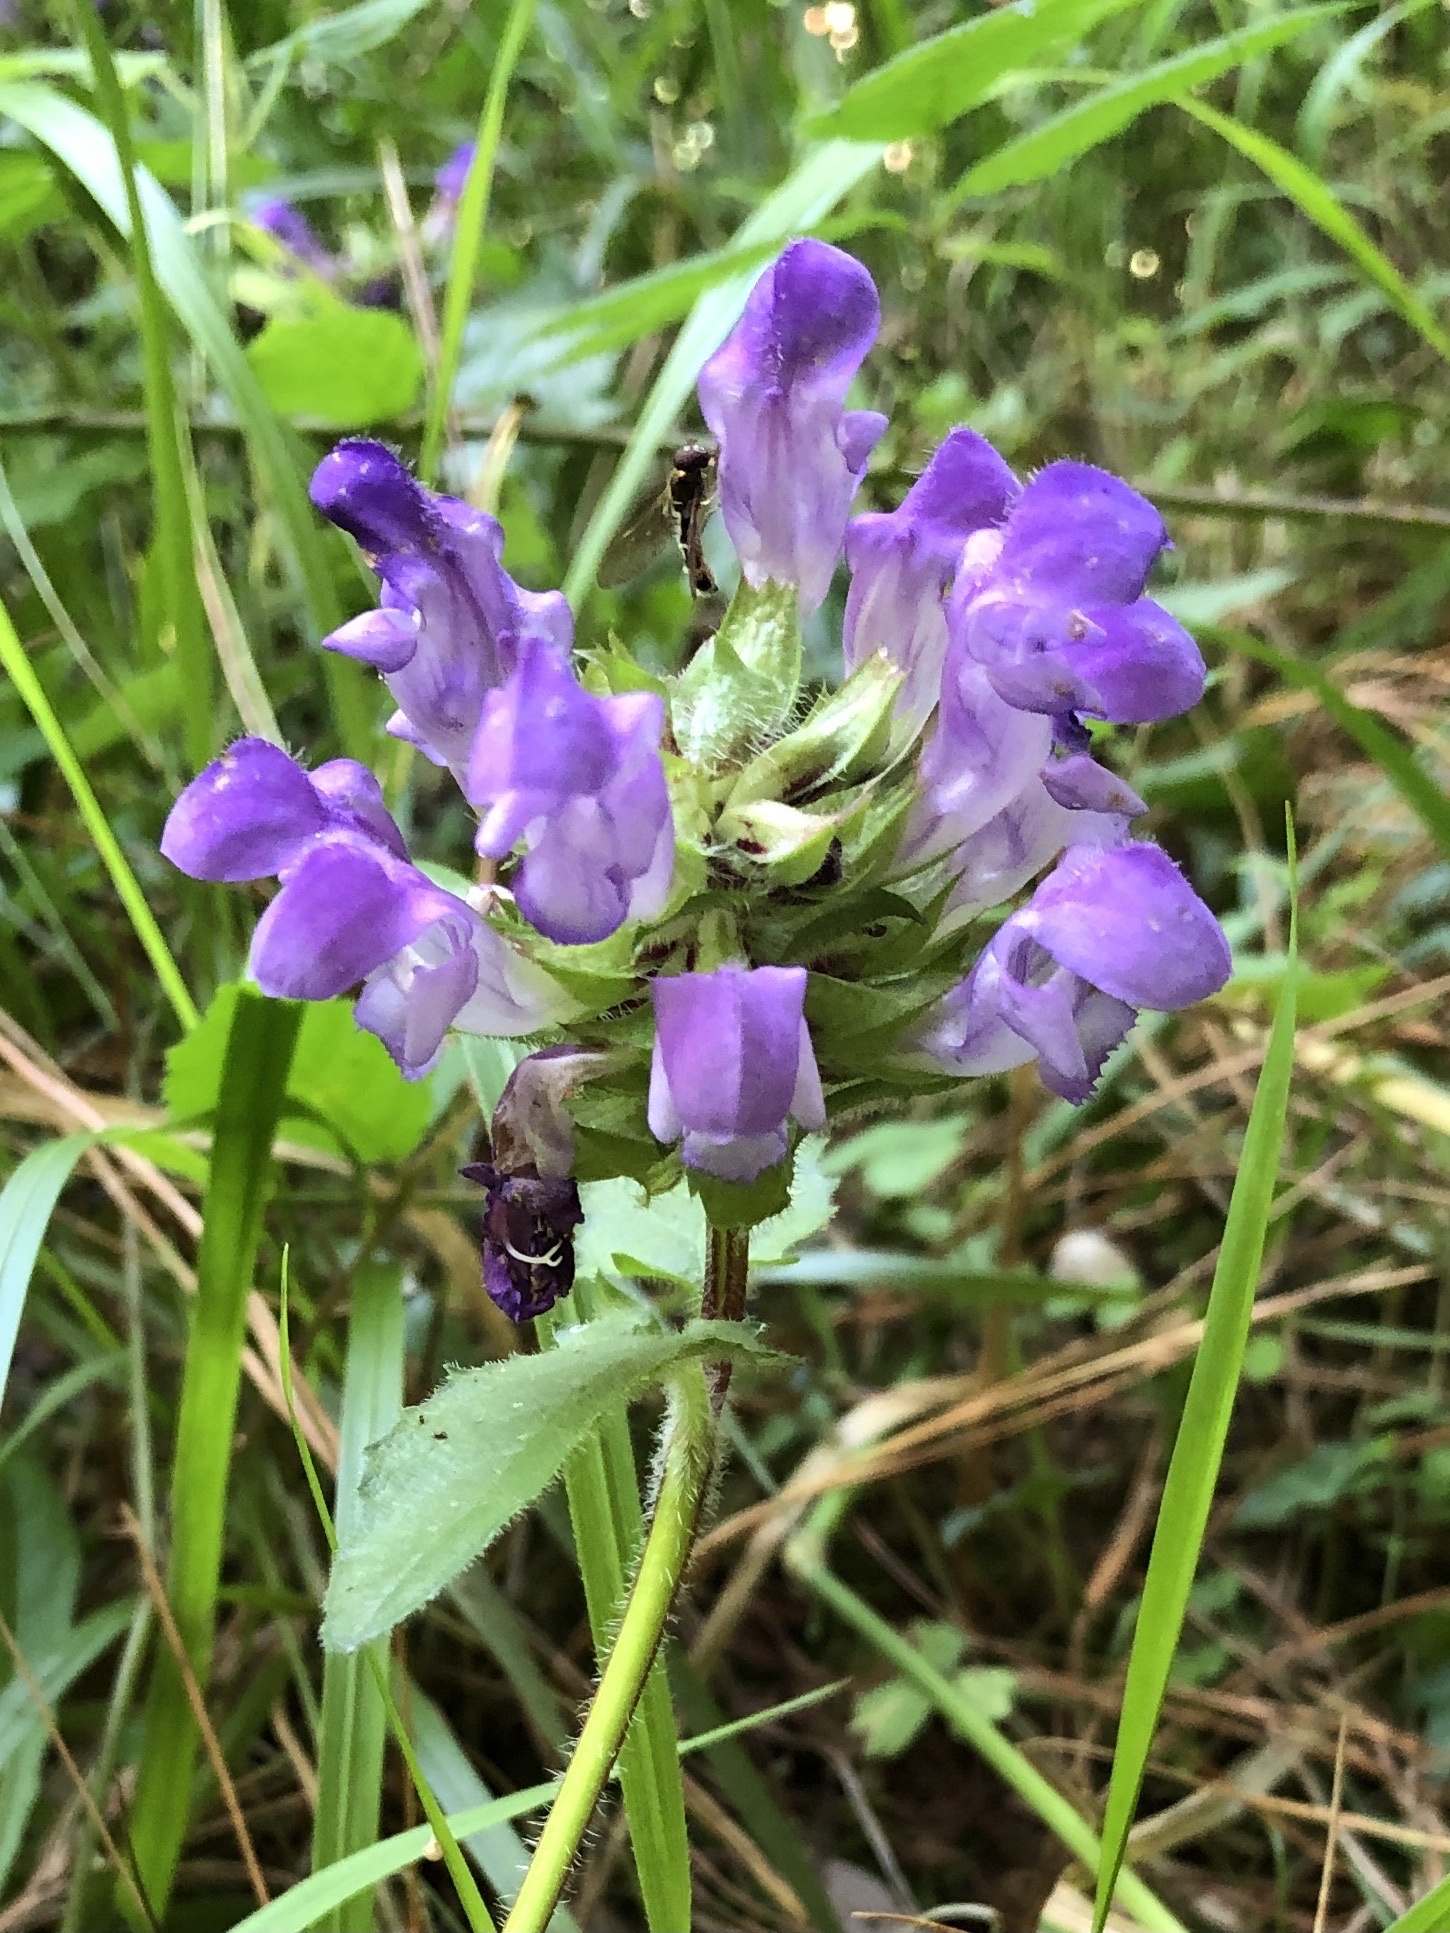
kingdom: Plantae
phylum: Tracheophyta
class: Magnoliopsida
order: Lamiales
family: Lamiaceae
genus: Prunella
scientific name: Prunella grandiflora
